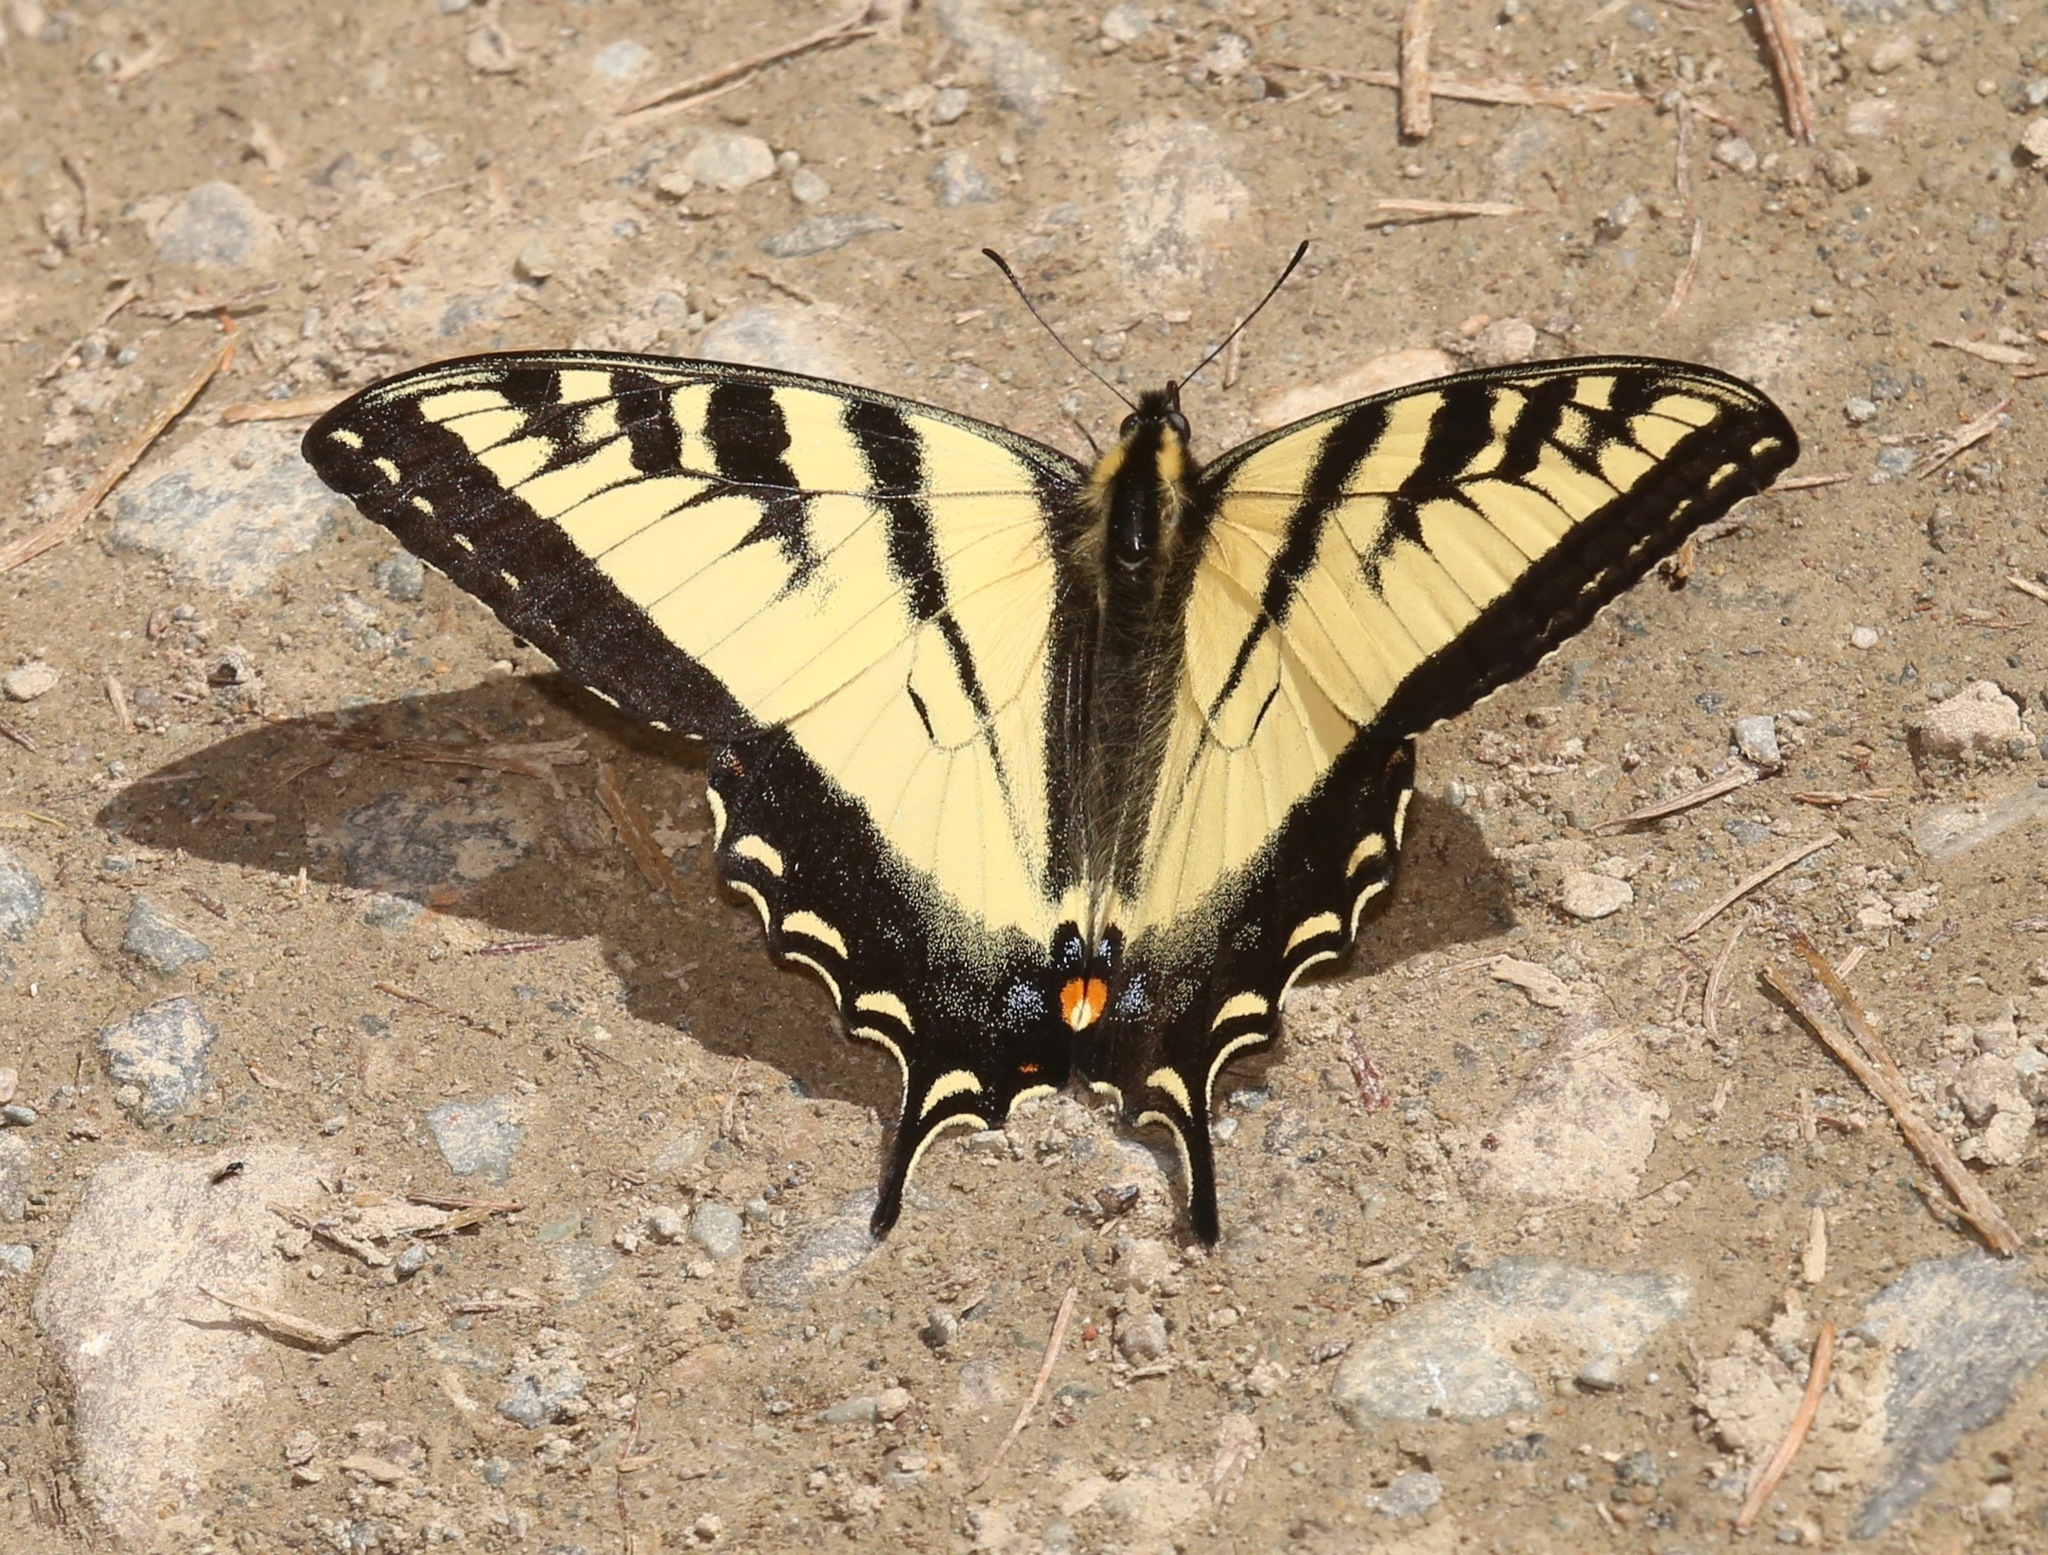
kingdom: Animalia
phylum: Arthropoda
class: Insecta
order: Lepidoptera
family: Papilionidae
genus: Papilio
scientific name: Papilio rutulus
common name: Western tiger swallowtail
